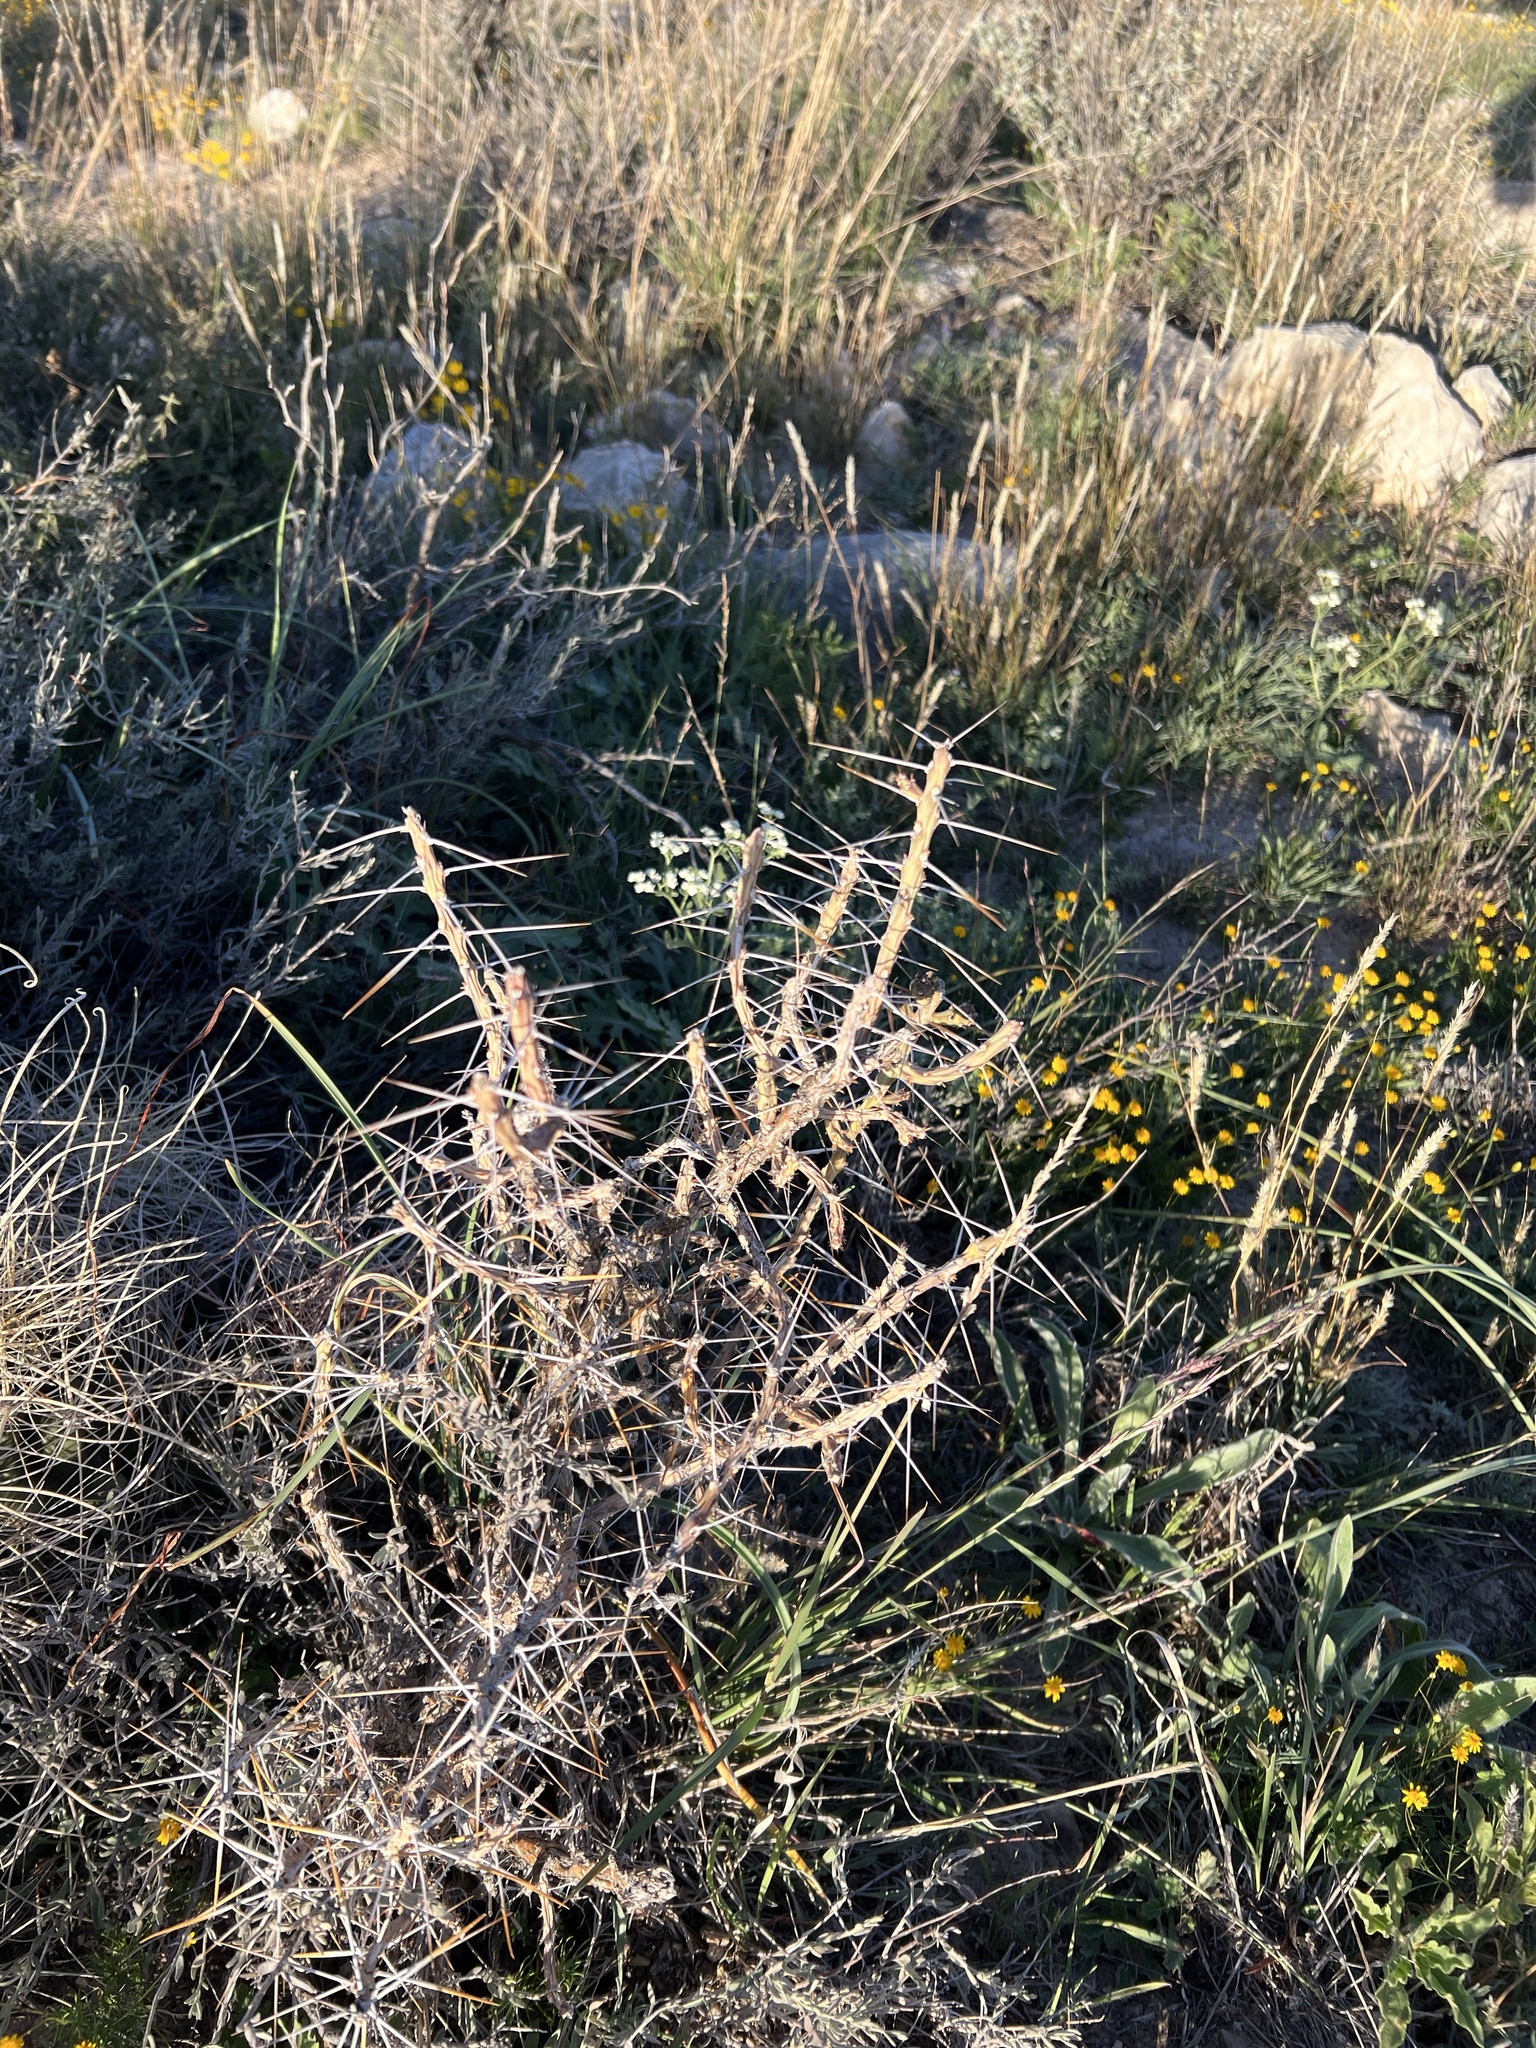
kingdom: Plantae
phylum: Tracheophyta
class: Magnoliopsida
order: Caryophyllales
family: Cactaceae
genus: Cylindropuntia
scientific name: Cylindropuntia leptocaulis
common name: Christmas cactus
